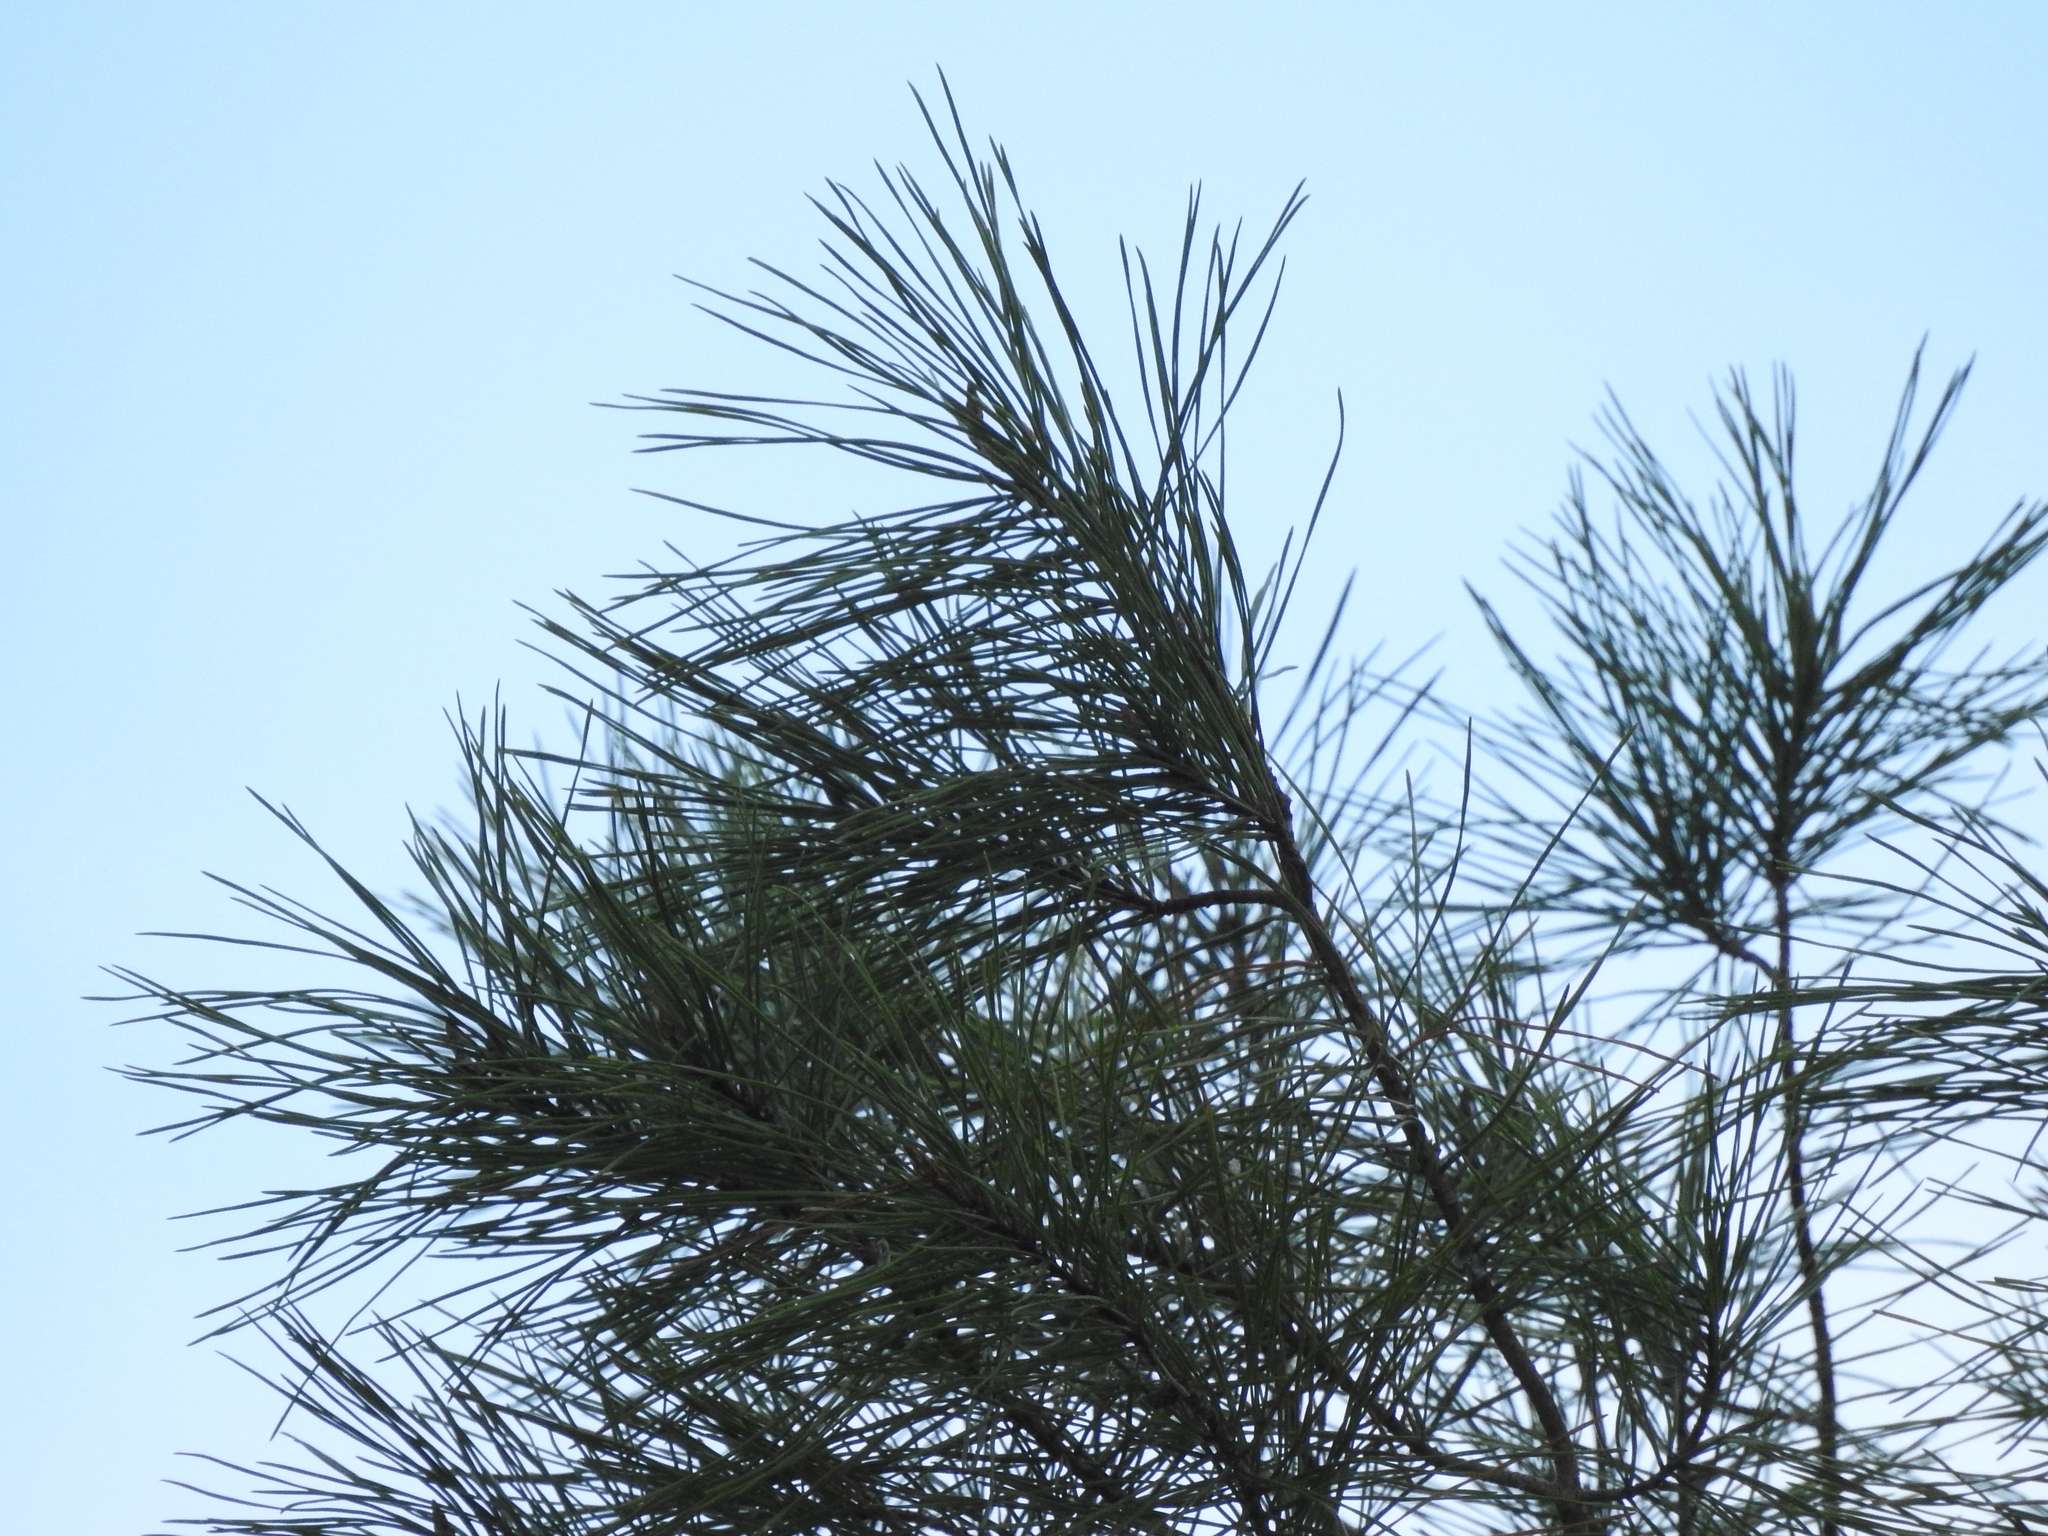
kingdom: Plantae
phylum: Tracheophyta
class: Pinopsida
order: Pinales
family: Pinaceae
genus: Pinus
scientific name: Pinus clausa
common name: Sand pine
